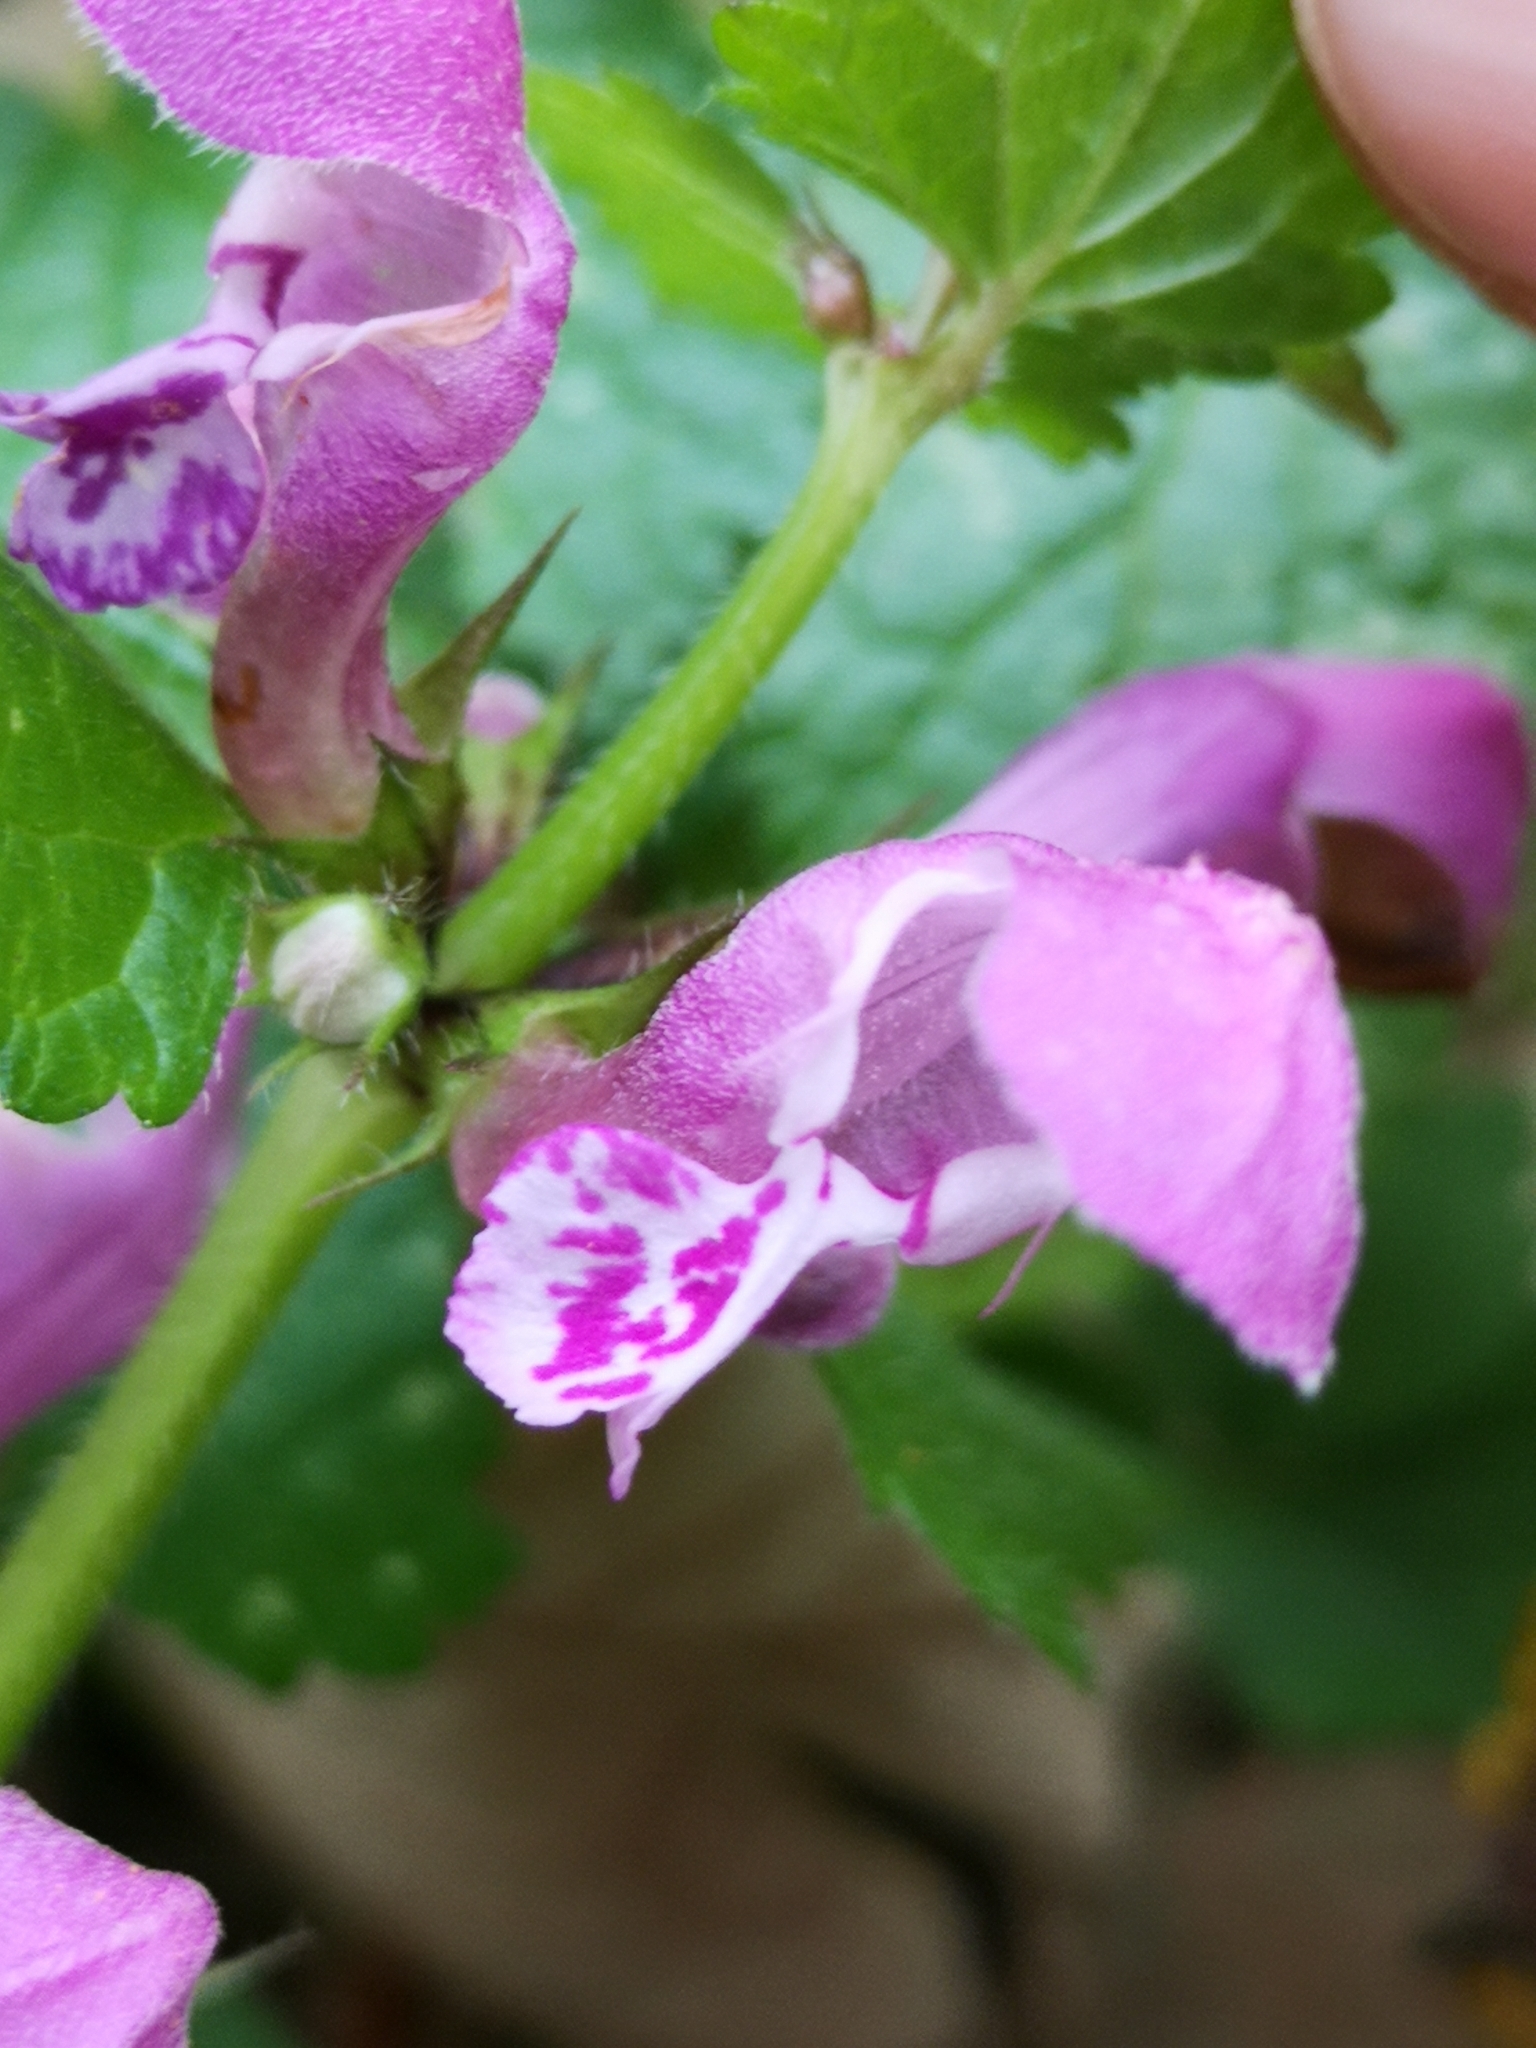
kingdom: Plantae
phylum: Tracheophyta
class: Magnoliopsida
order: Lamiales
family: Lamiaceae
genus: Lamium
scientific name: Lamium maculatum
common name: Spotted dead-nettle
